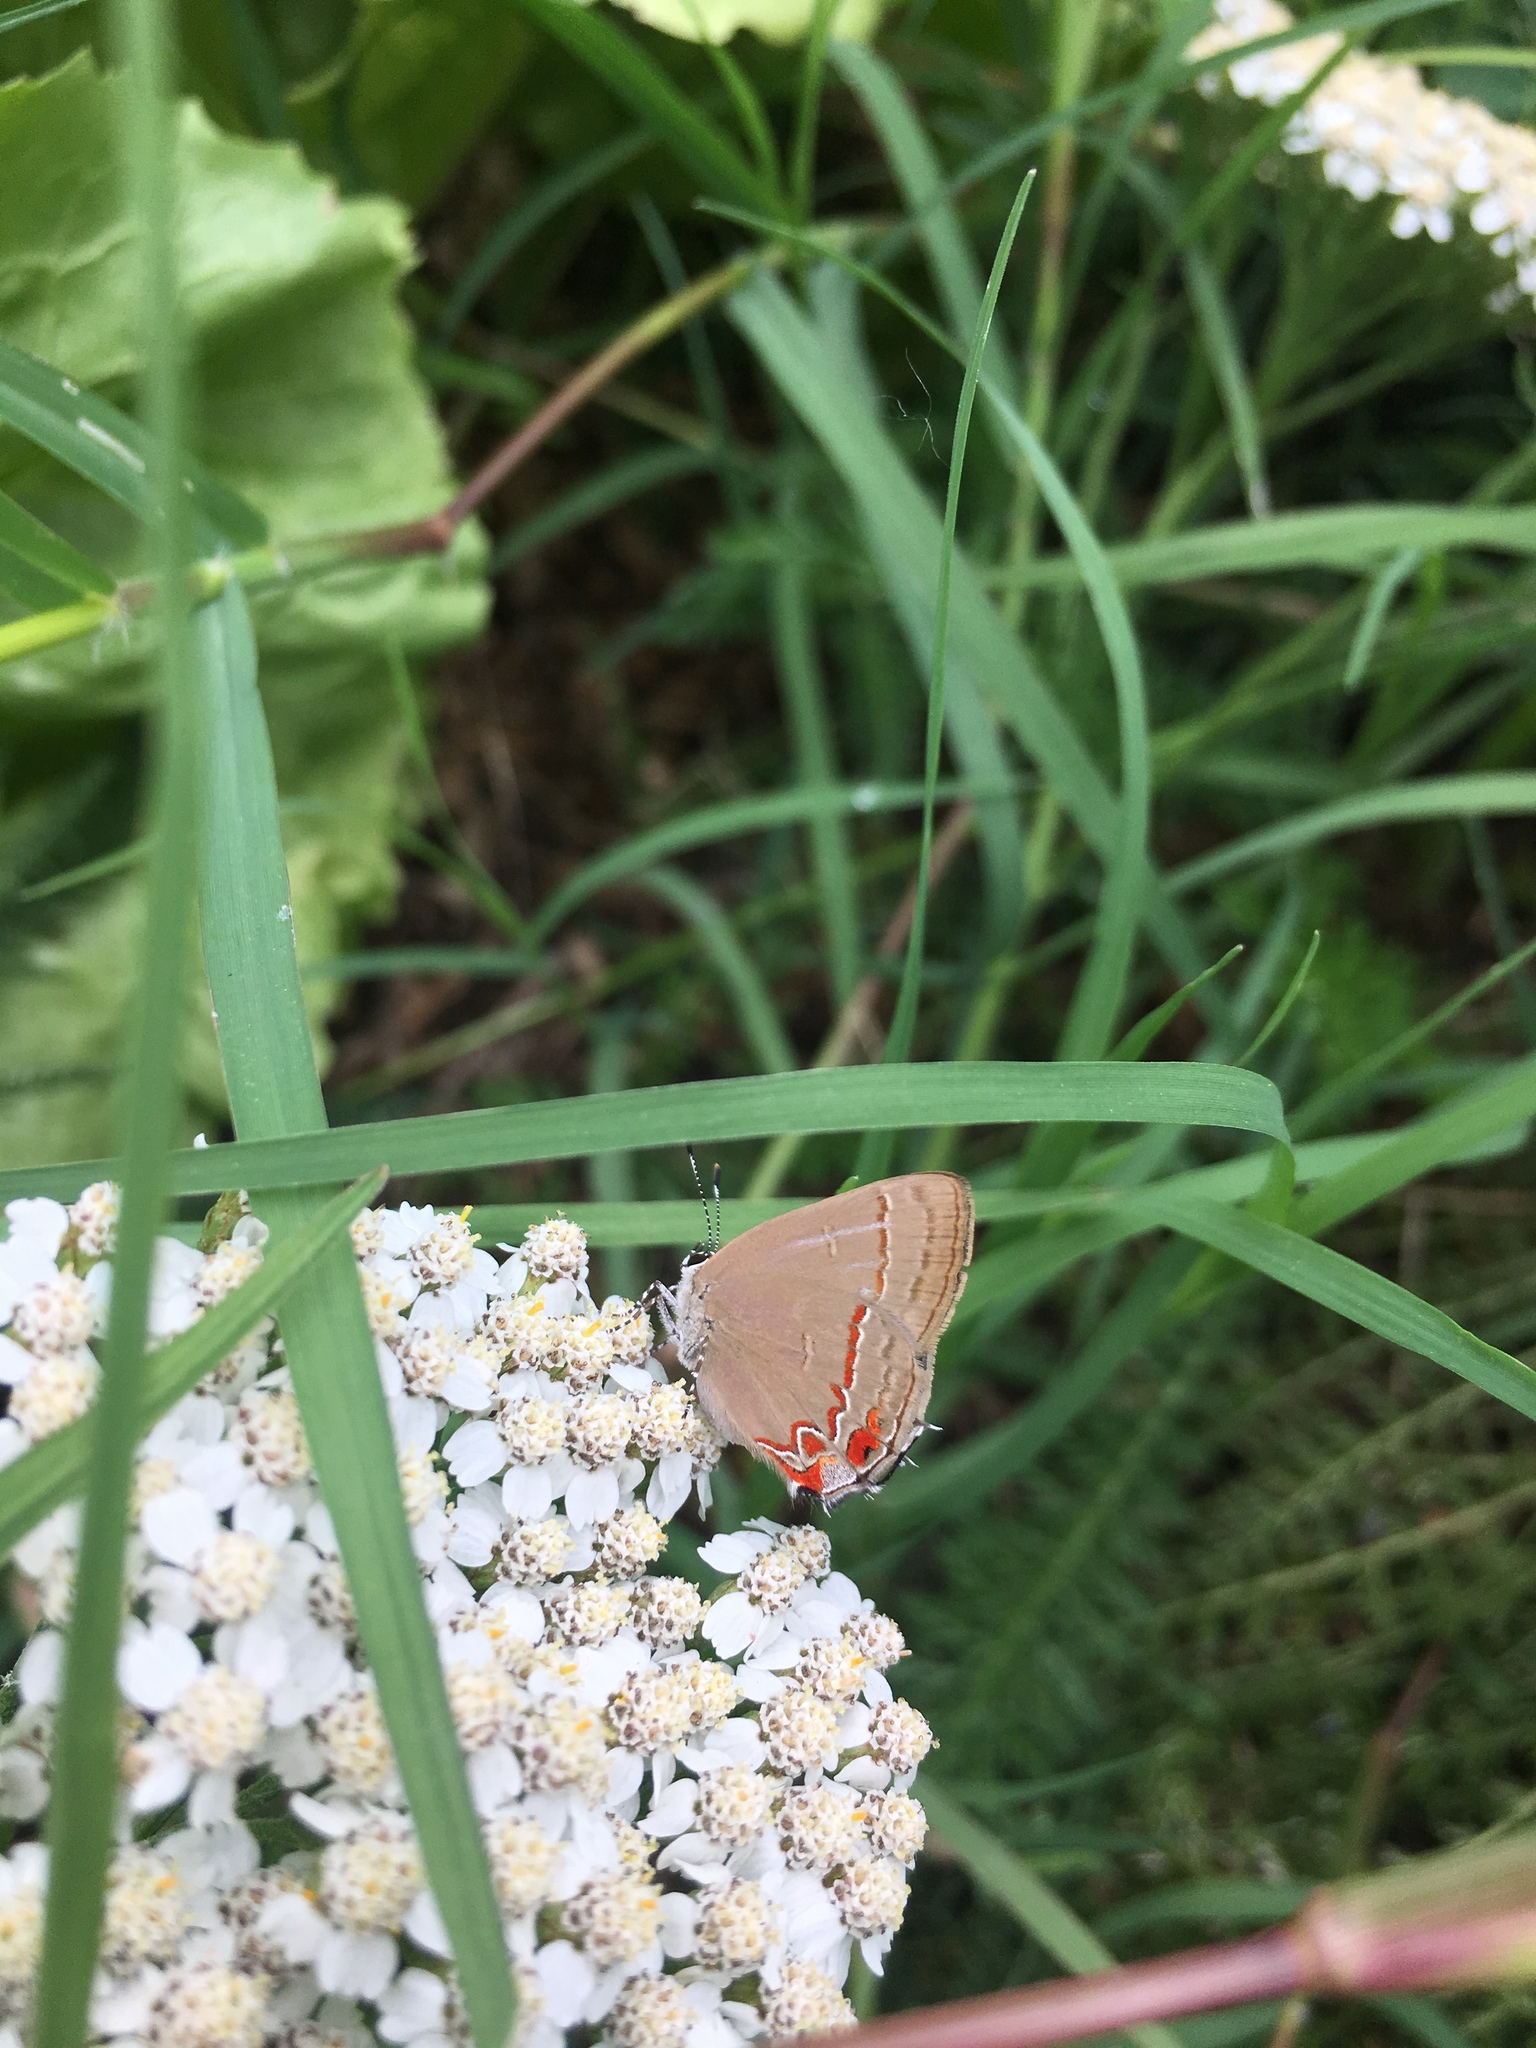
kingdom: Animalia
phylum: Arthropoda
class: Insecta
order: Lepidoptera
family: Lycaenidae
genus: Calycopis
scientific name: Calycopis caulonia
